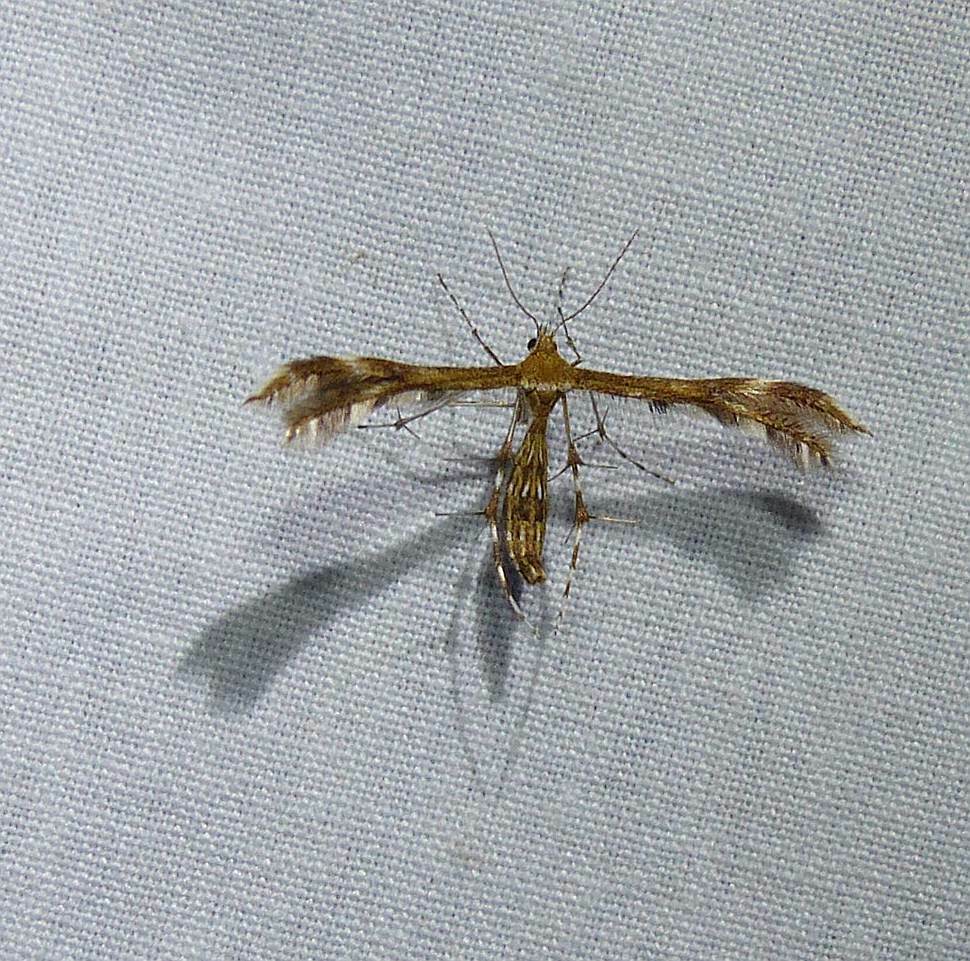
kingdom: Animalia
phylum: Arthropoda
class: Insecta
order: Lepidoptera
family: Pterophoridae
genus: Dejongia
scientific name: Dejongia lobidactylus
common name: Lobed plume moth
